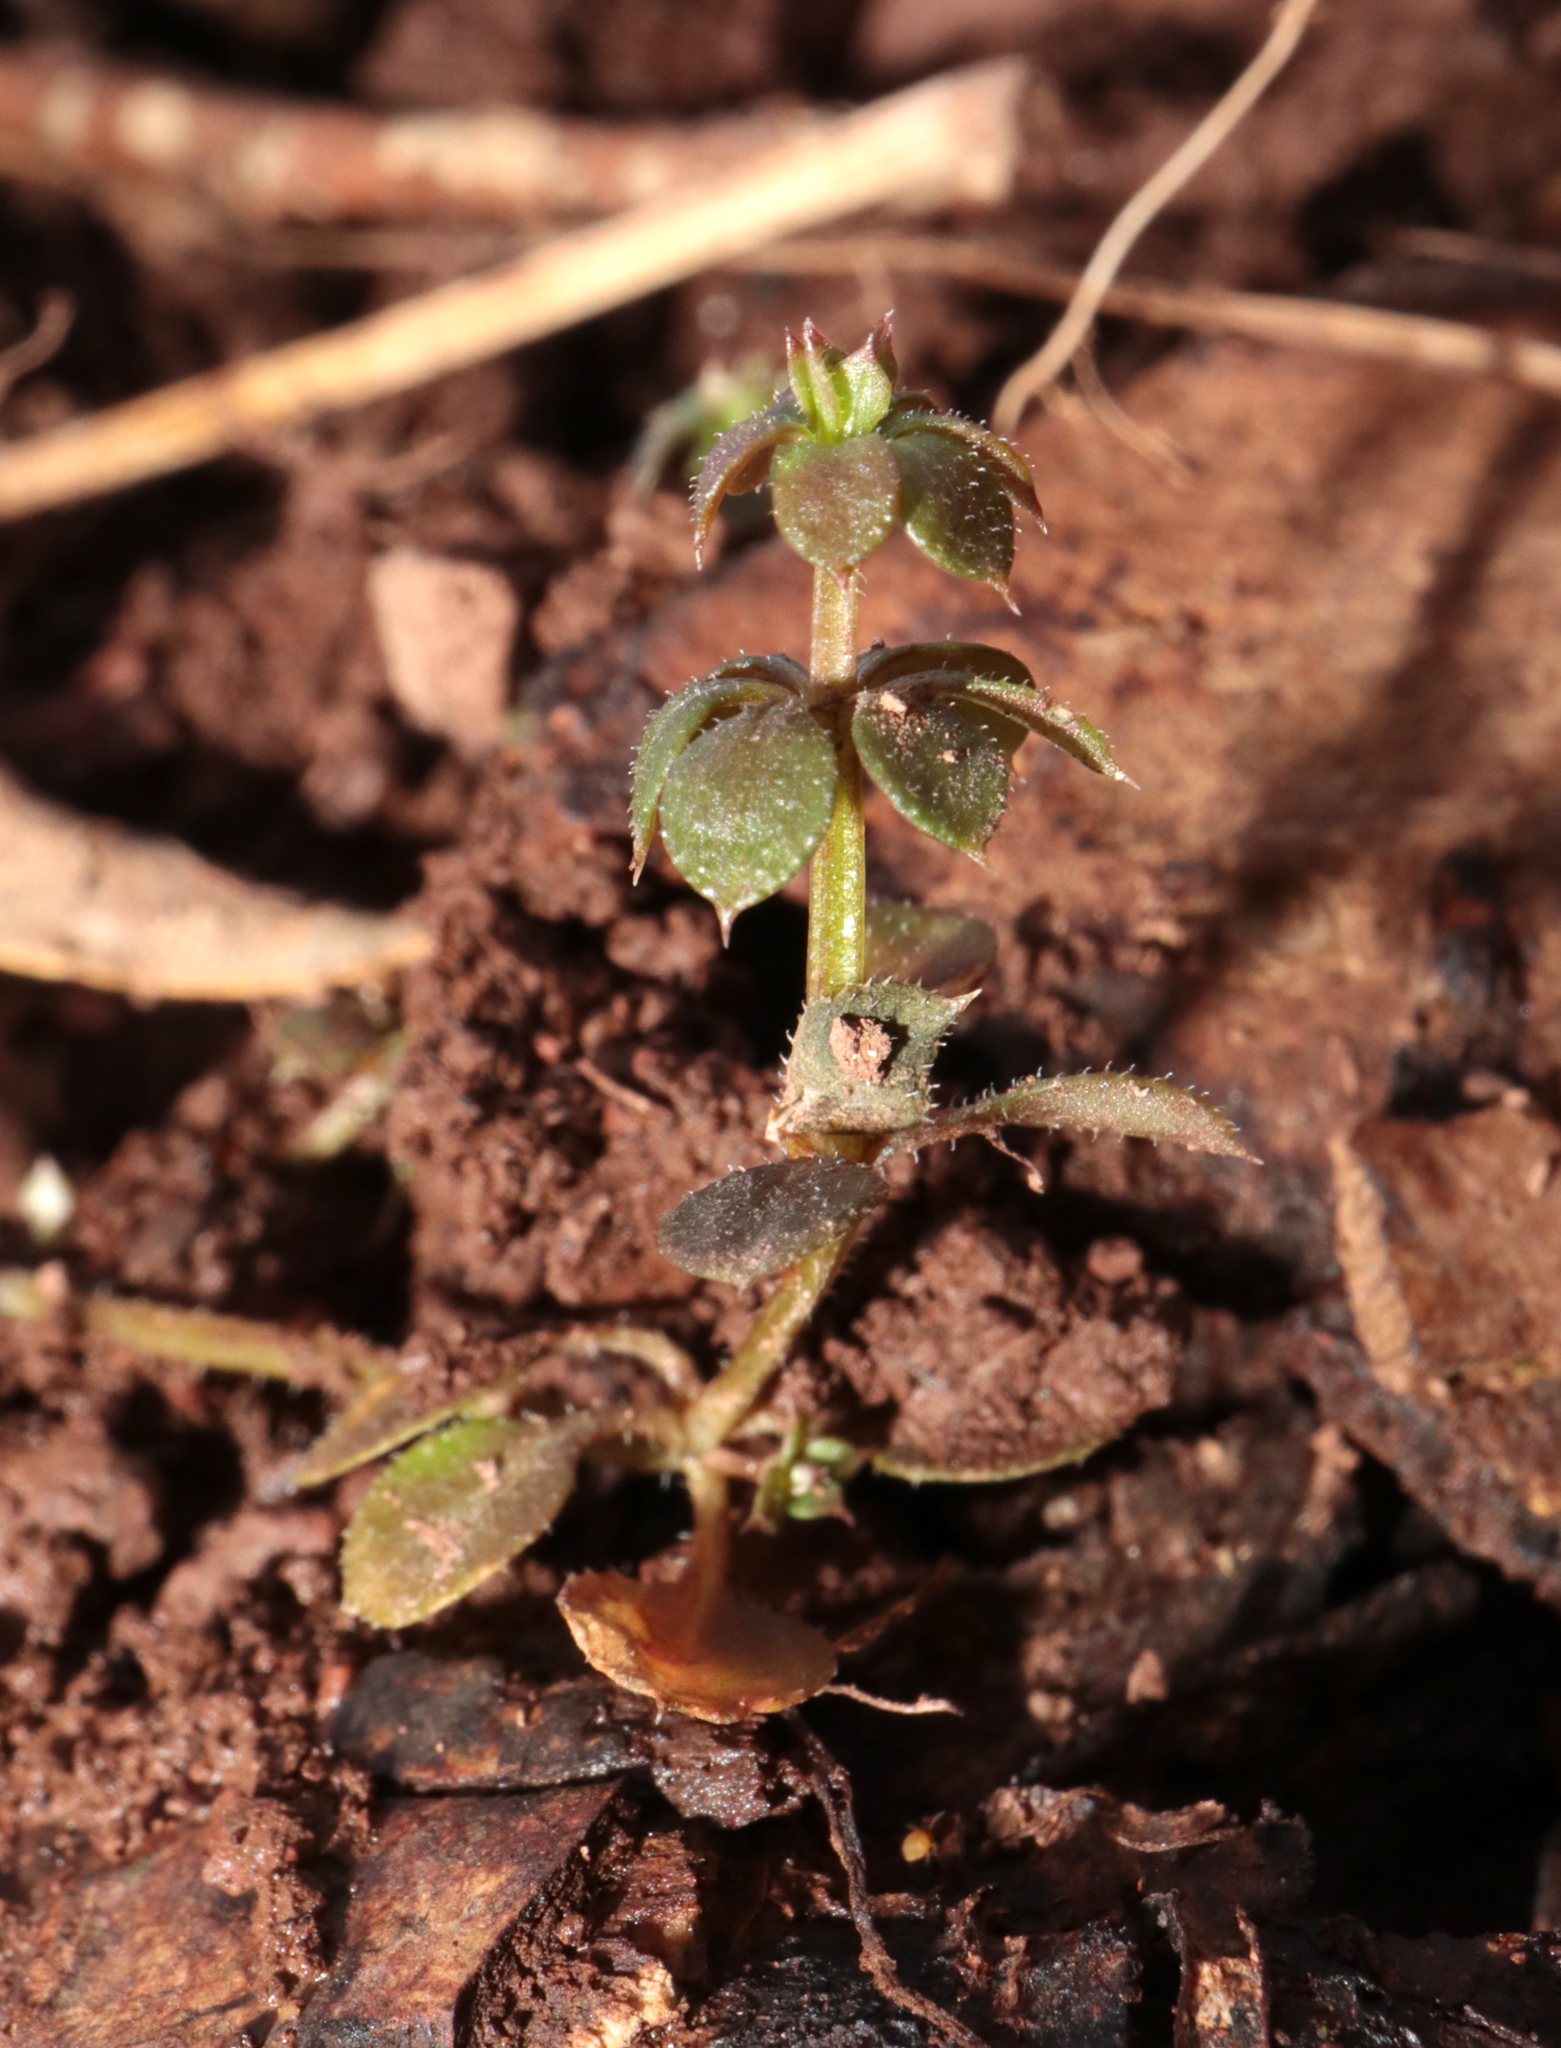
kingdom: Plantae
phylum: Tracheophyta
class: Magnoliopsida
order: Gentianales
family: Rubiaceae
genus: Galium
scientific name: Galium aparine
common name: Cleavers
